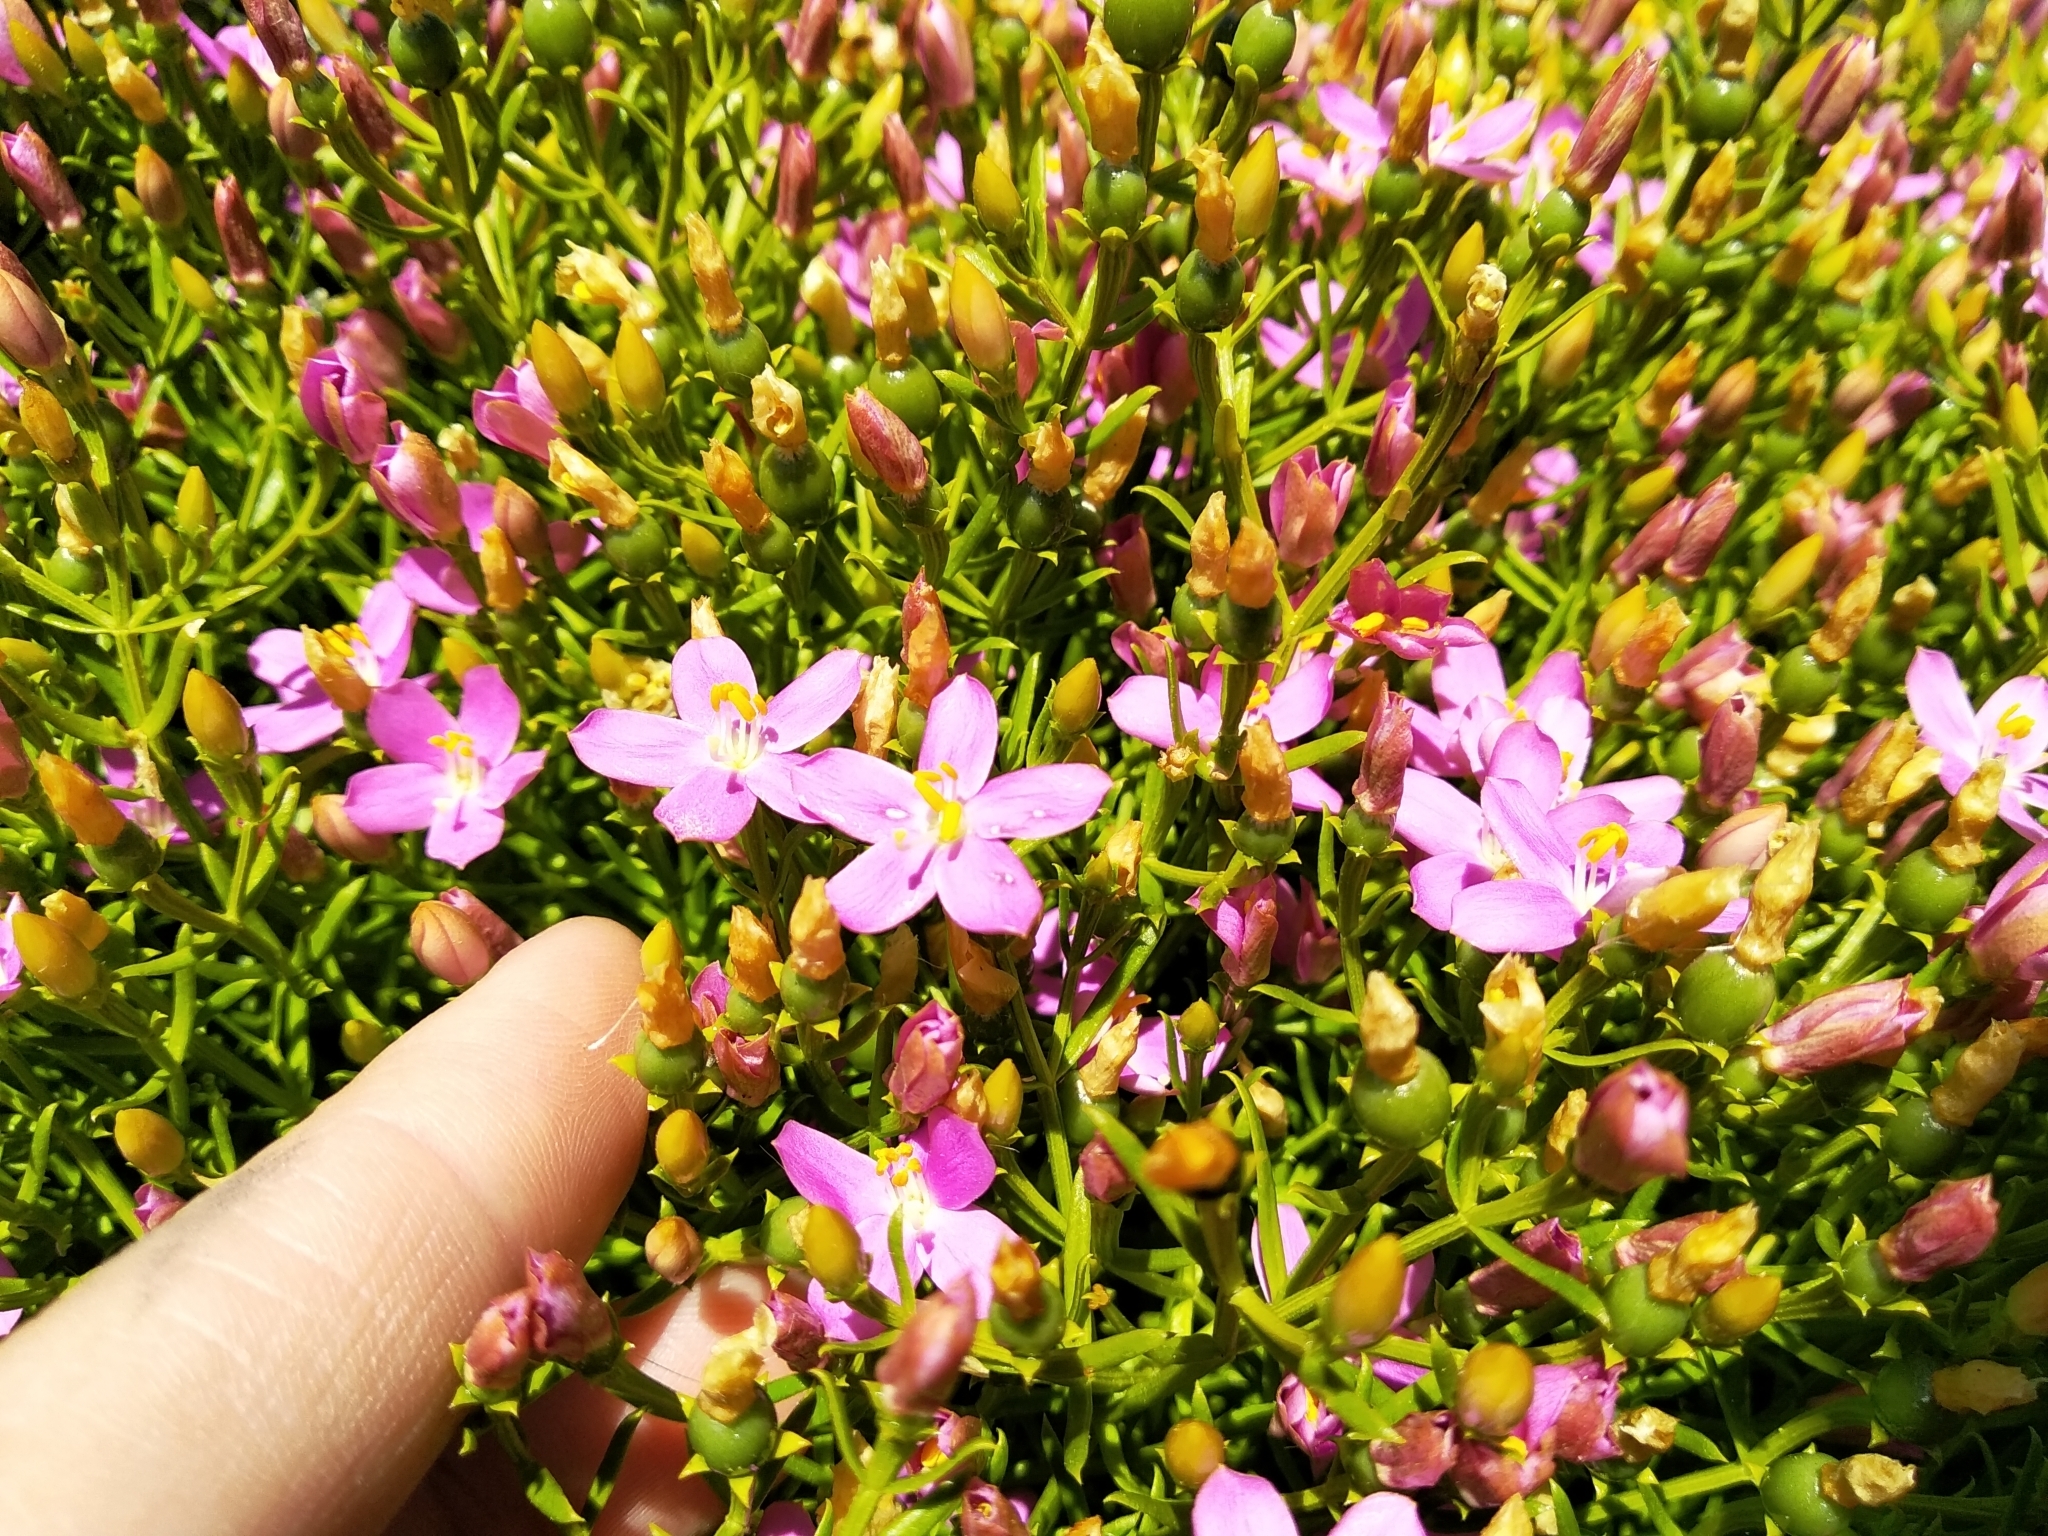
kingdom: Plantae
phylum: Tracheophyta
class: Magnoliopsida
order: Gentianales
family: Gentianaceae
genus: Chironia
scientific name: Chironia baccifera
